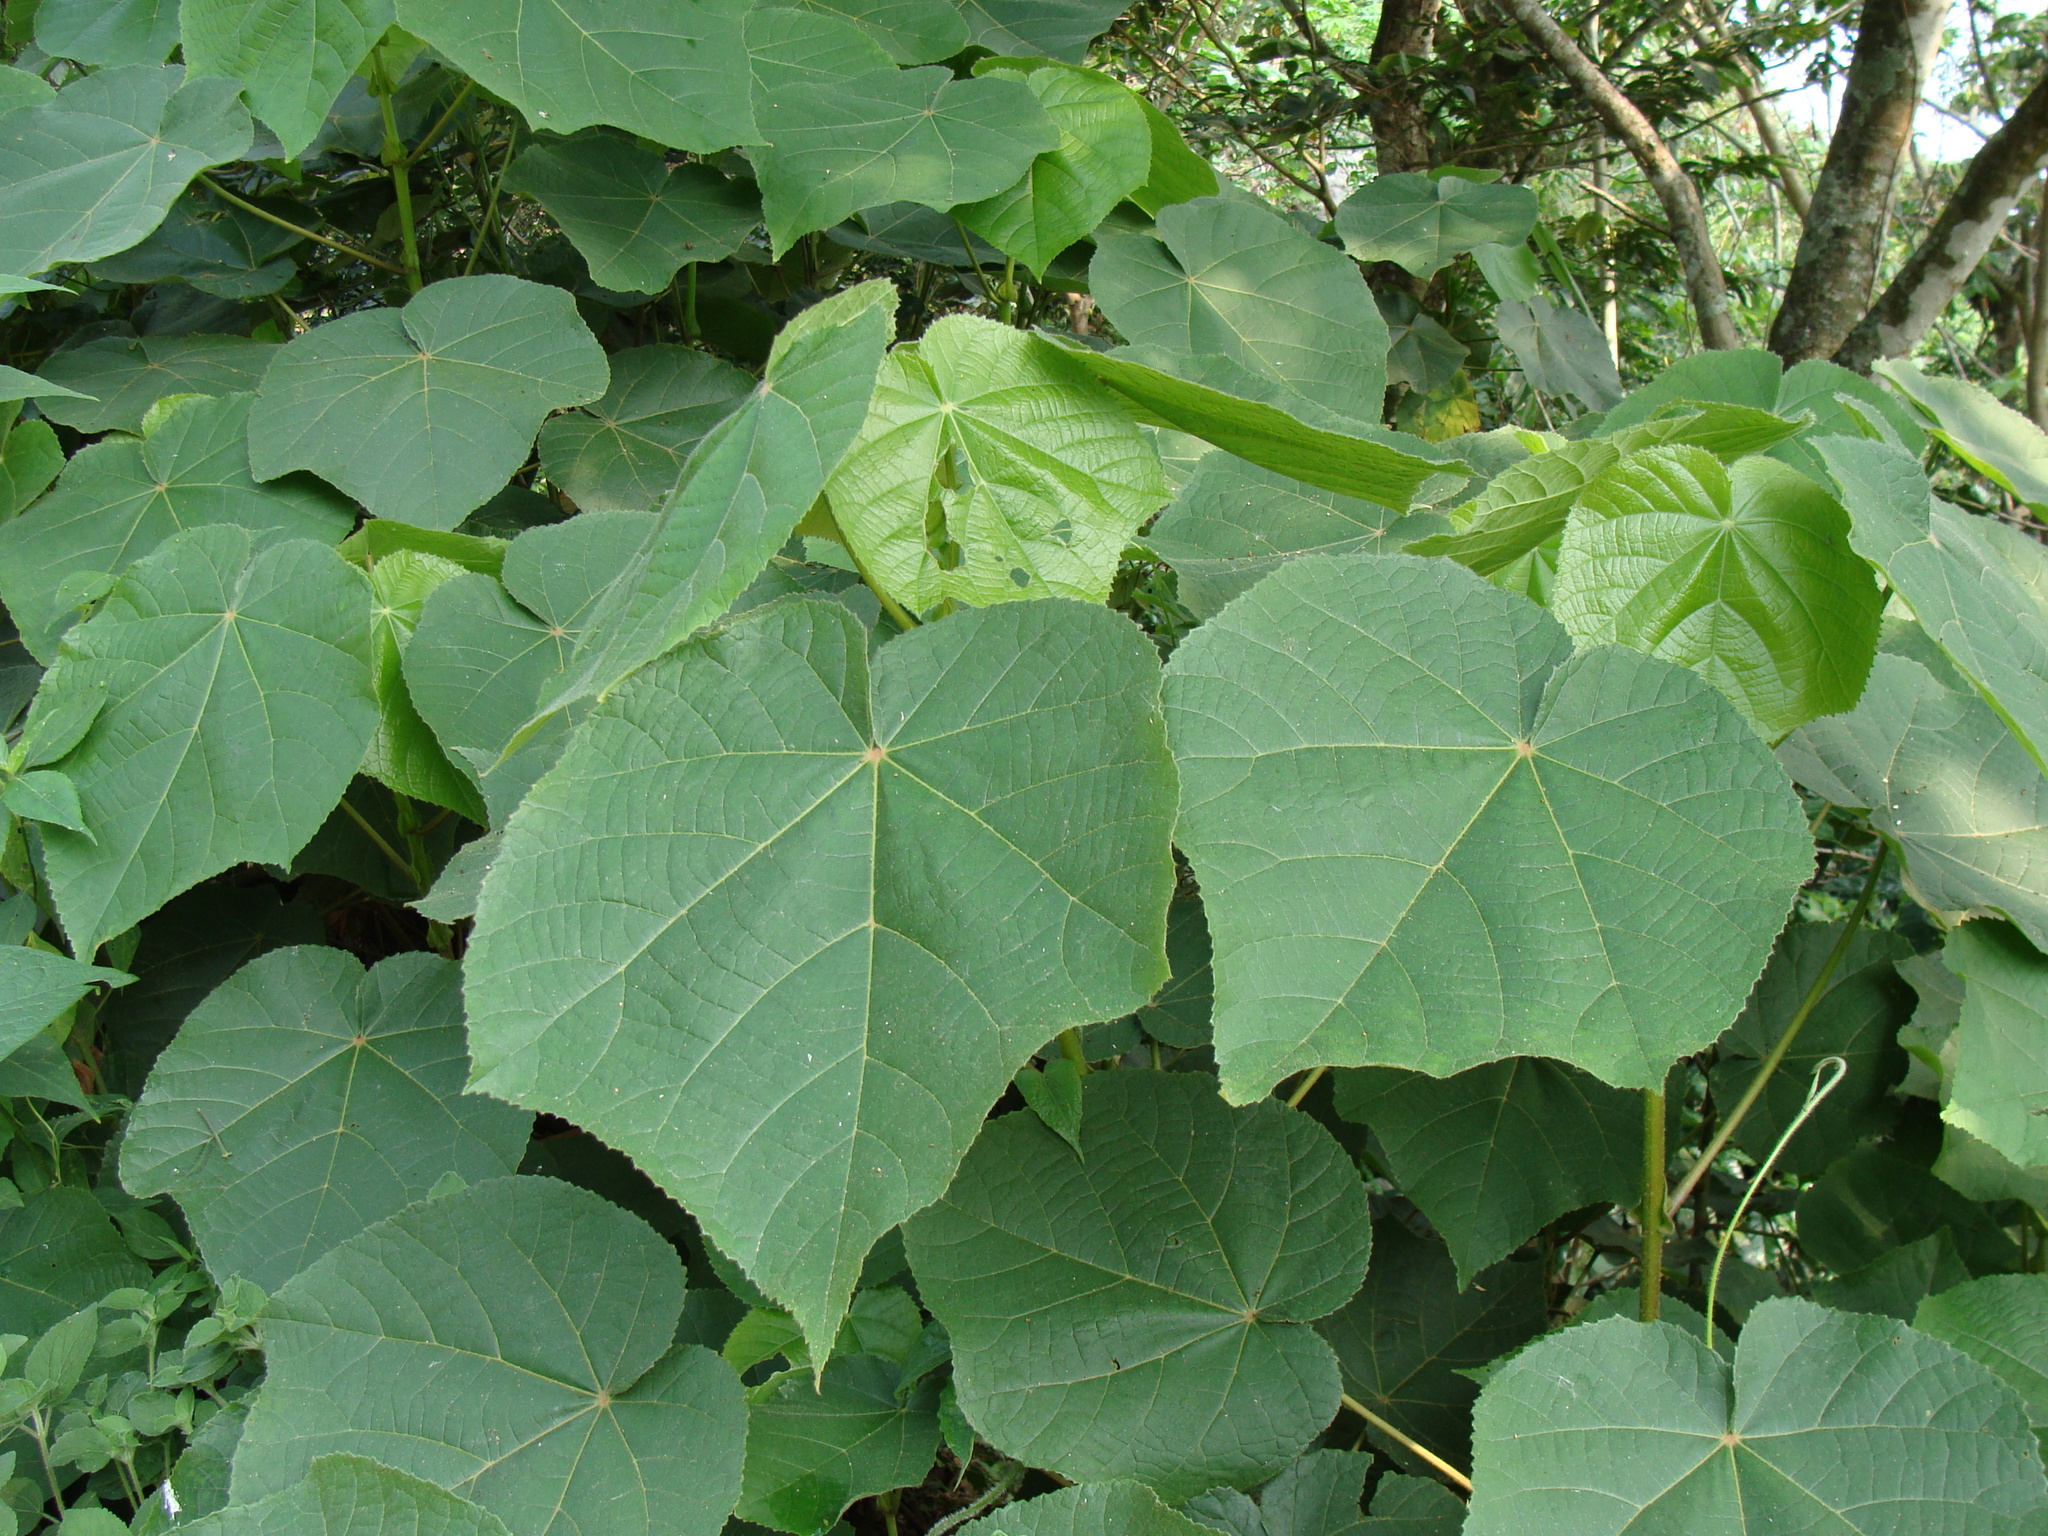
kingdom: Plantae
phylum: Tracheophyta
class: Magnoliopsida
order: Malvales
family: Malvaceae
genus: Dombeya
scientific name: Dombeya cayeuxii
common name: Pompomtree
